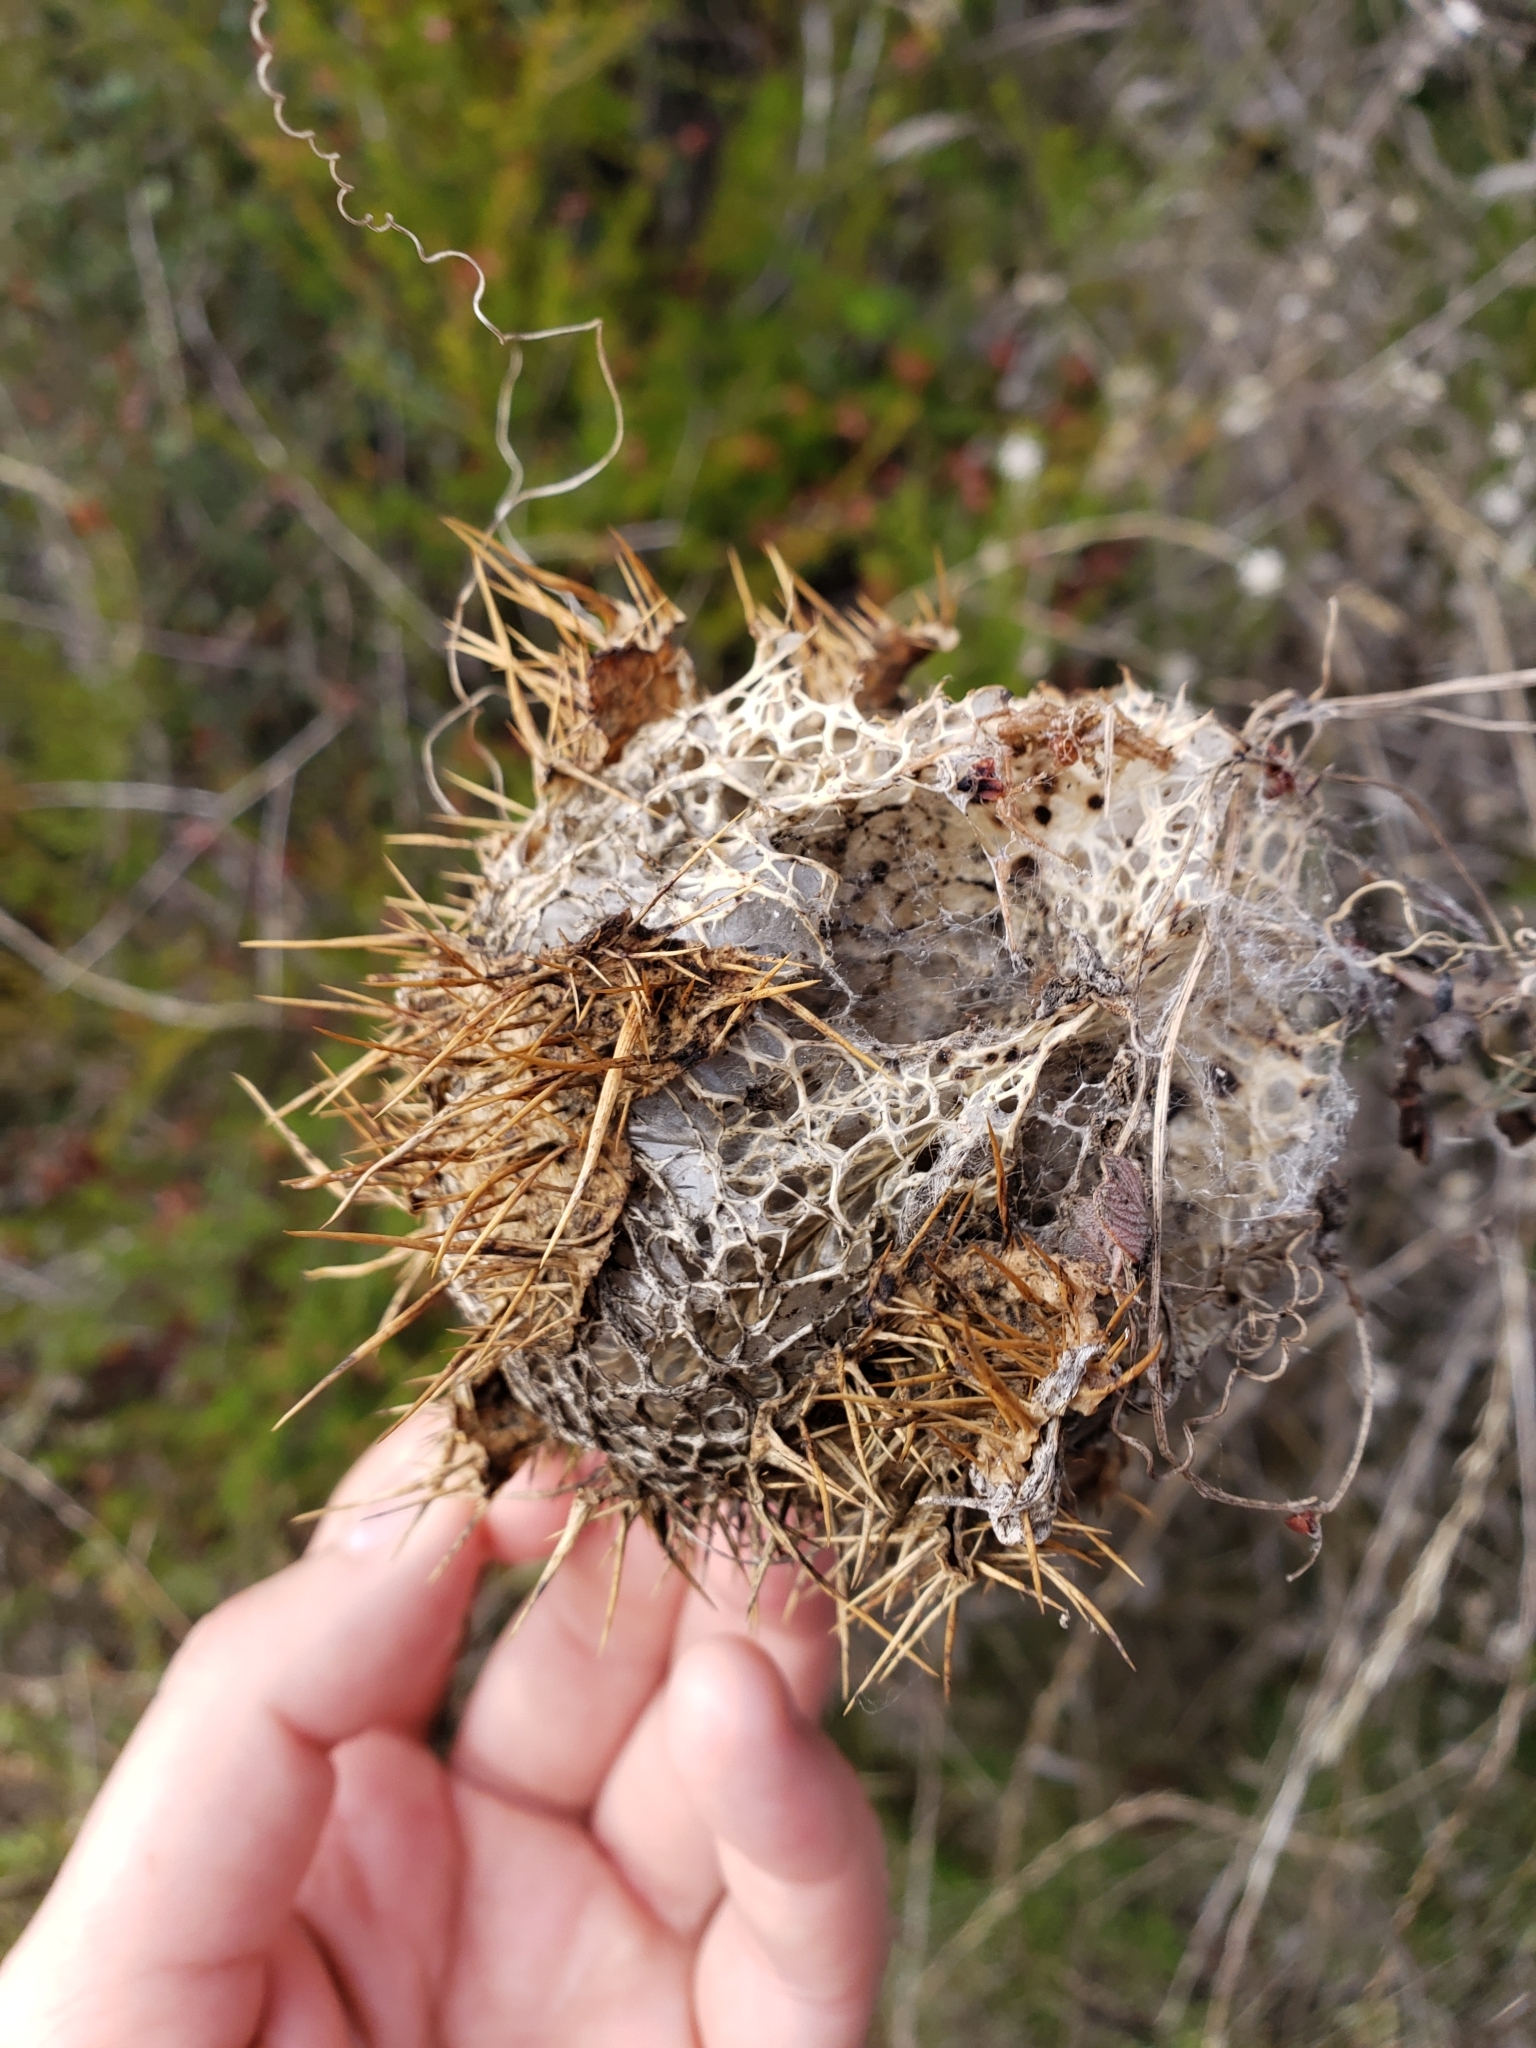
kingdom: Plantae
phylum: Tracheophyta
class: Magnoliopsida
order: Cucurbitales
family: Cucurbitaceae
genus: Marah
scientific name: Marah macrocarpa
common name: Cucamonga manroot
